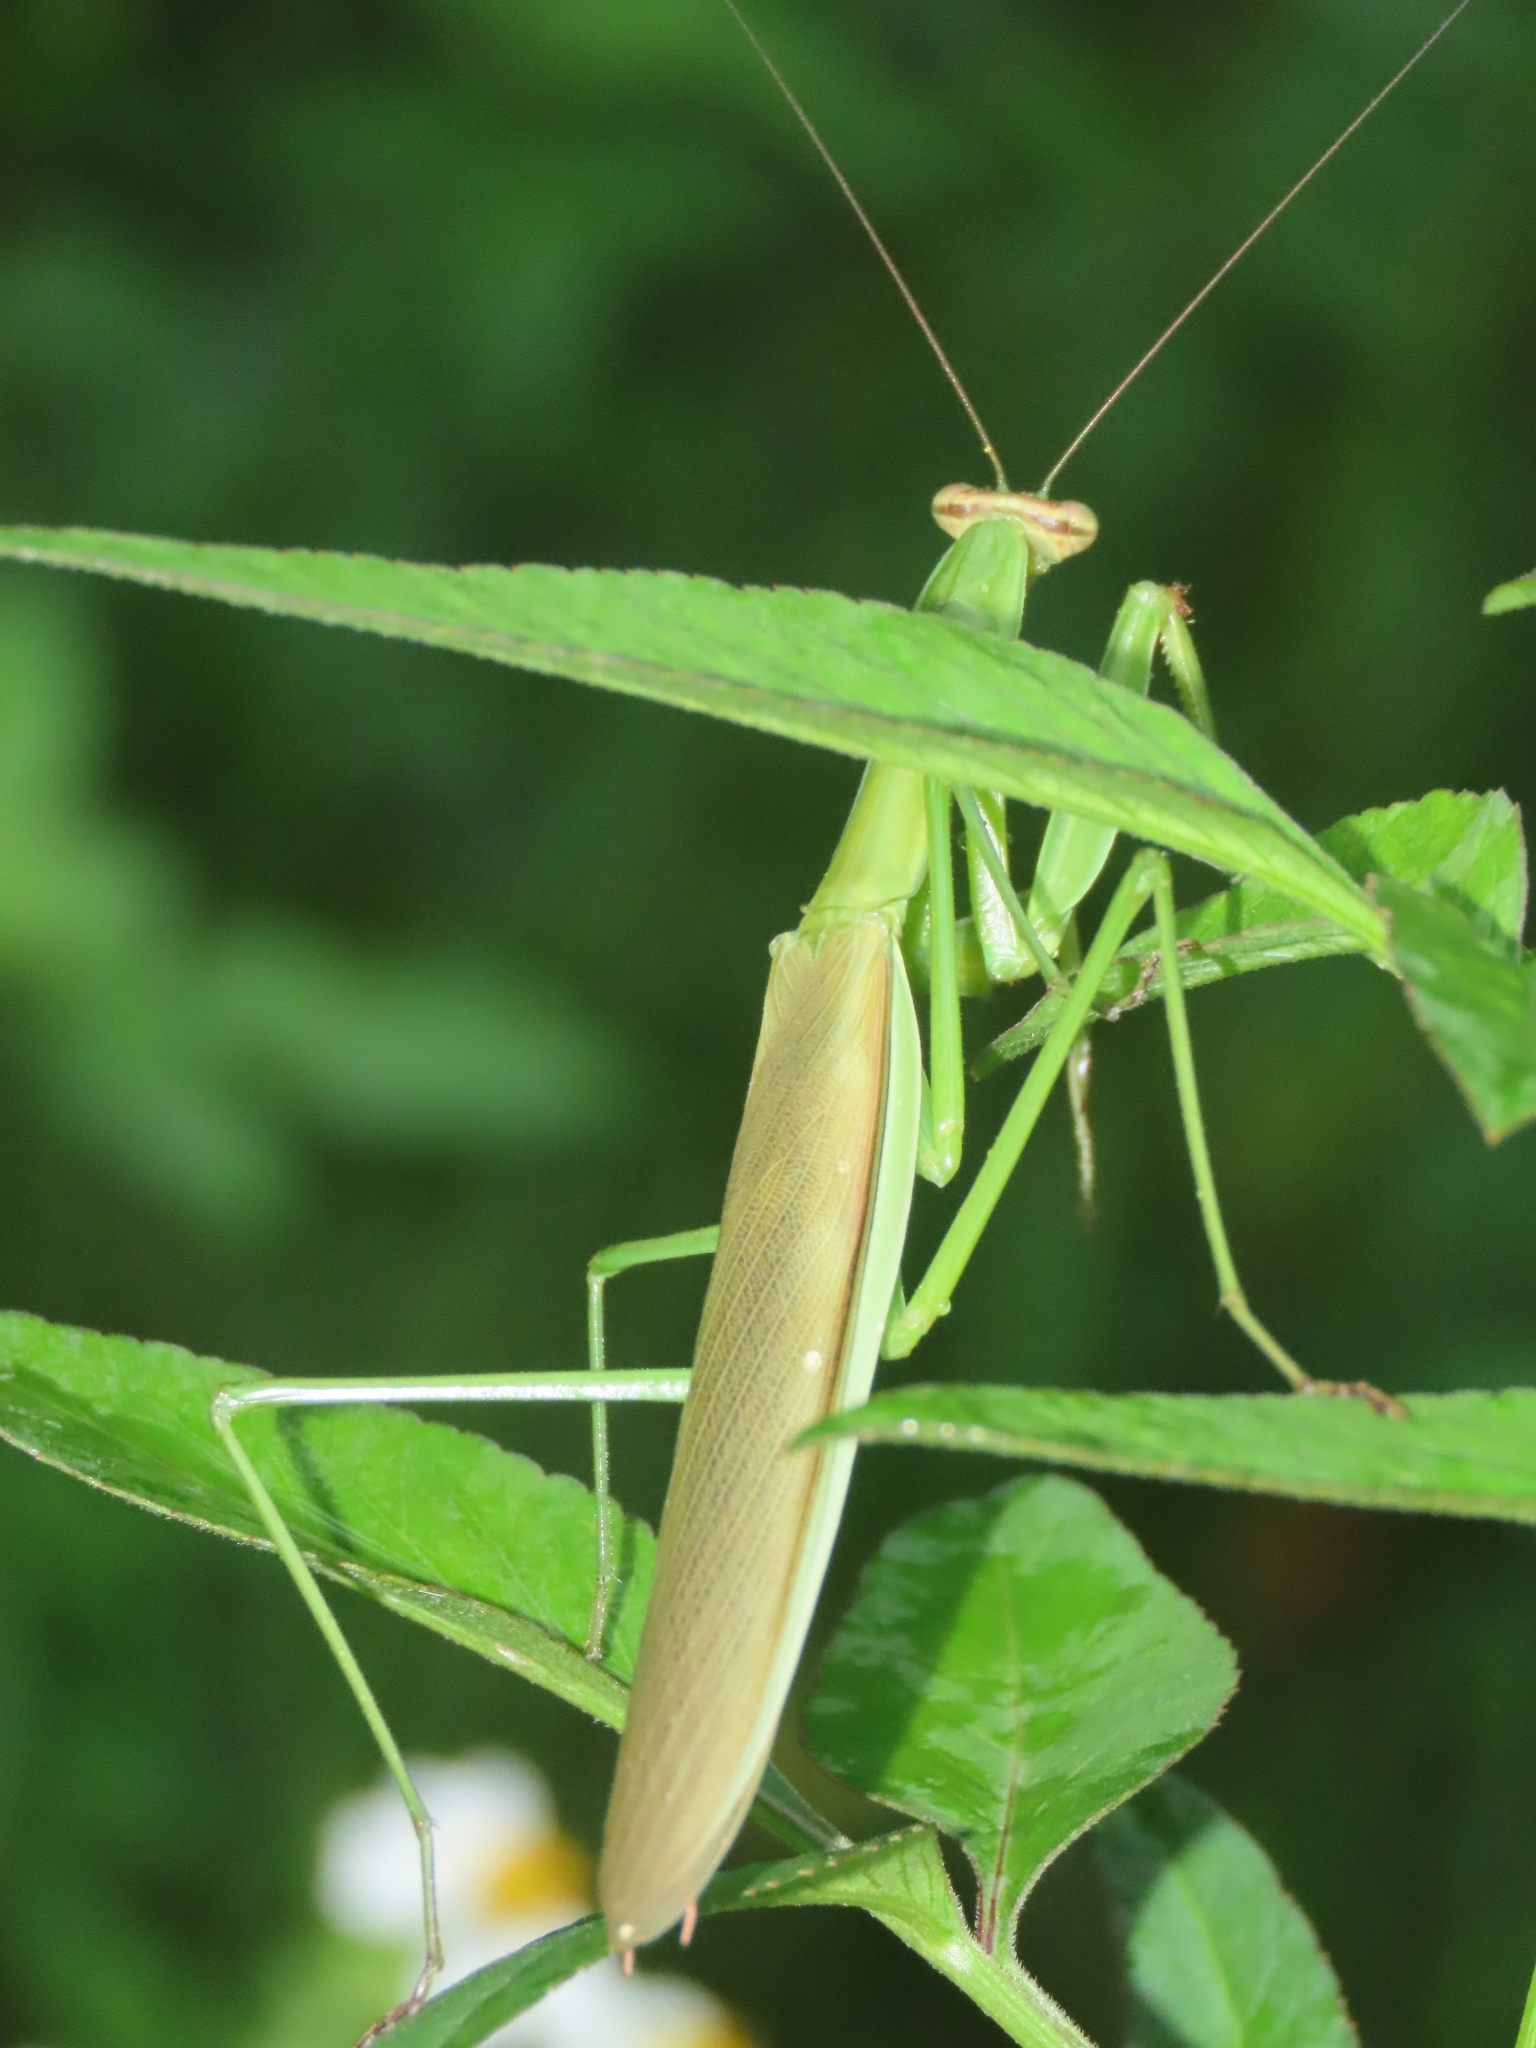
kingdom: Animalia
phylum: Arthropoda
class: Insecta
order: Mantodea
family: Mantidae
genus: Tenodera
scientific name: Tenodera angustipennis
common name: Asian mantis
